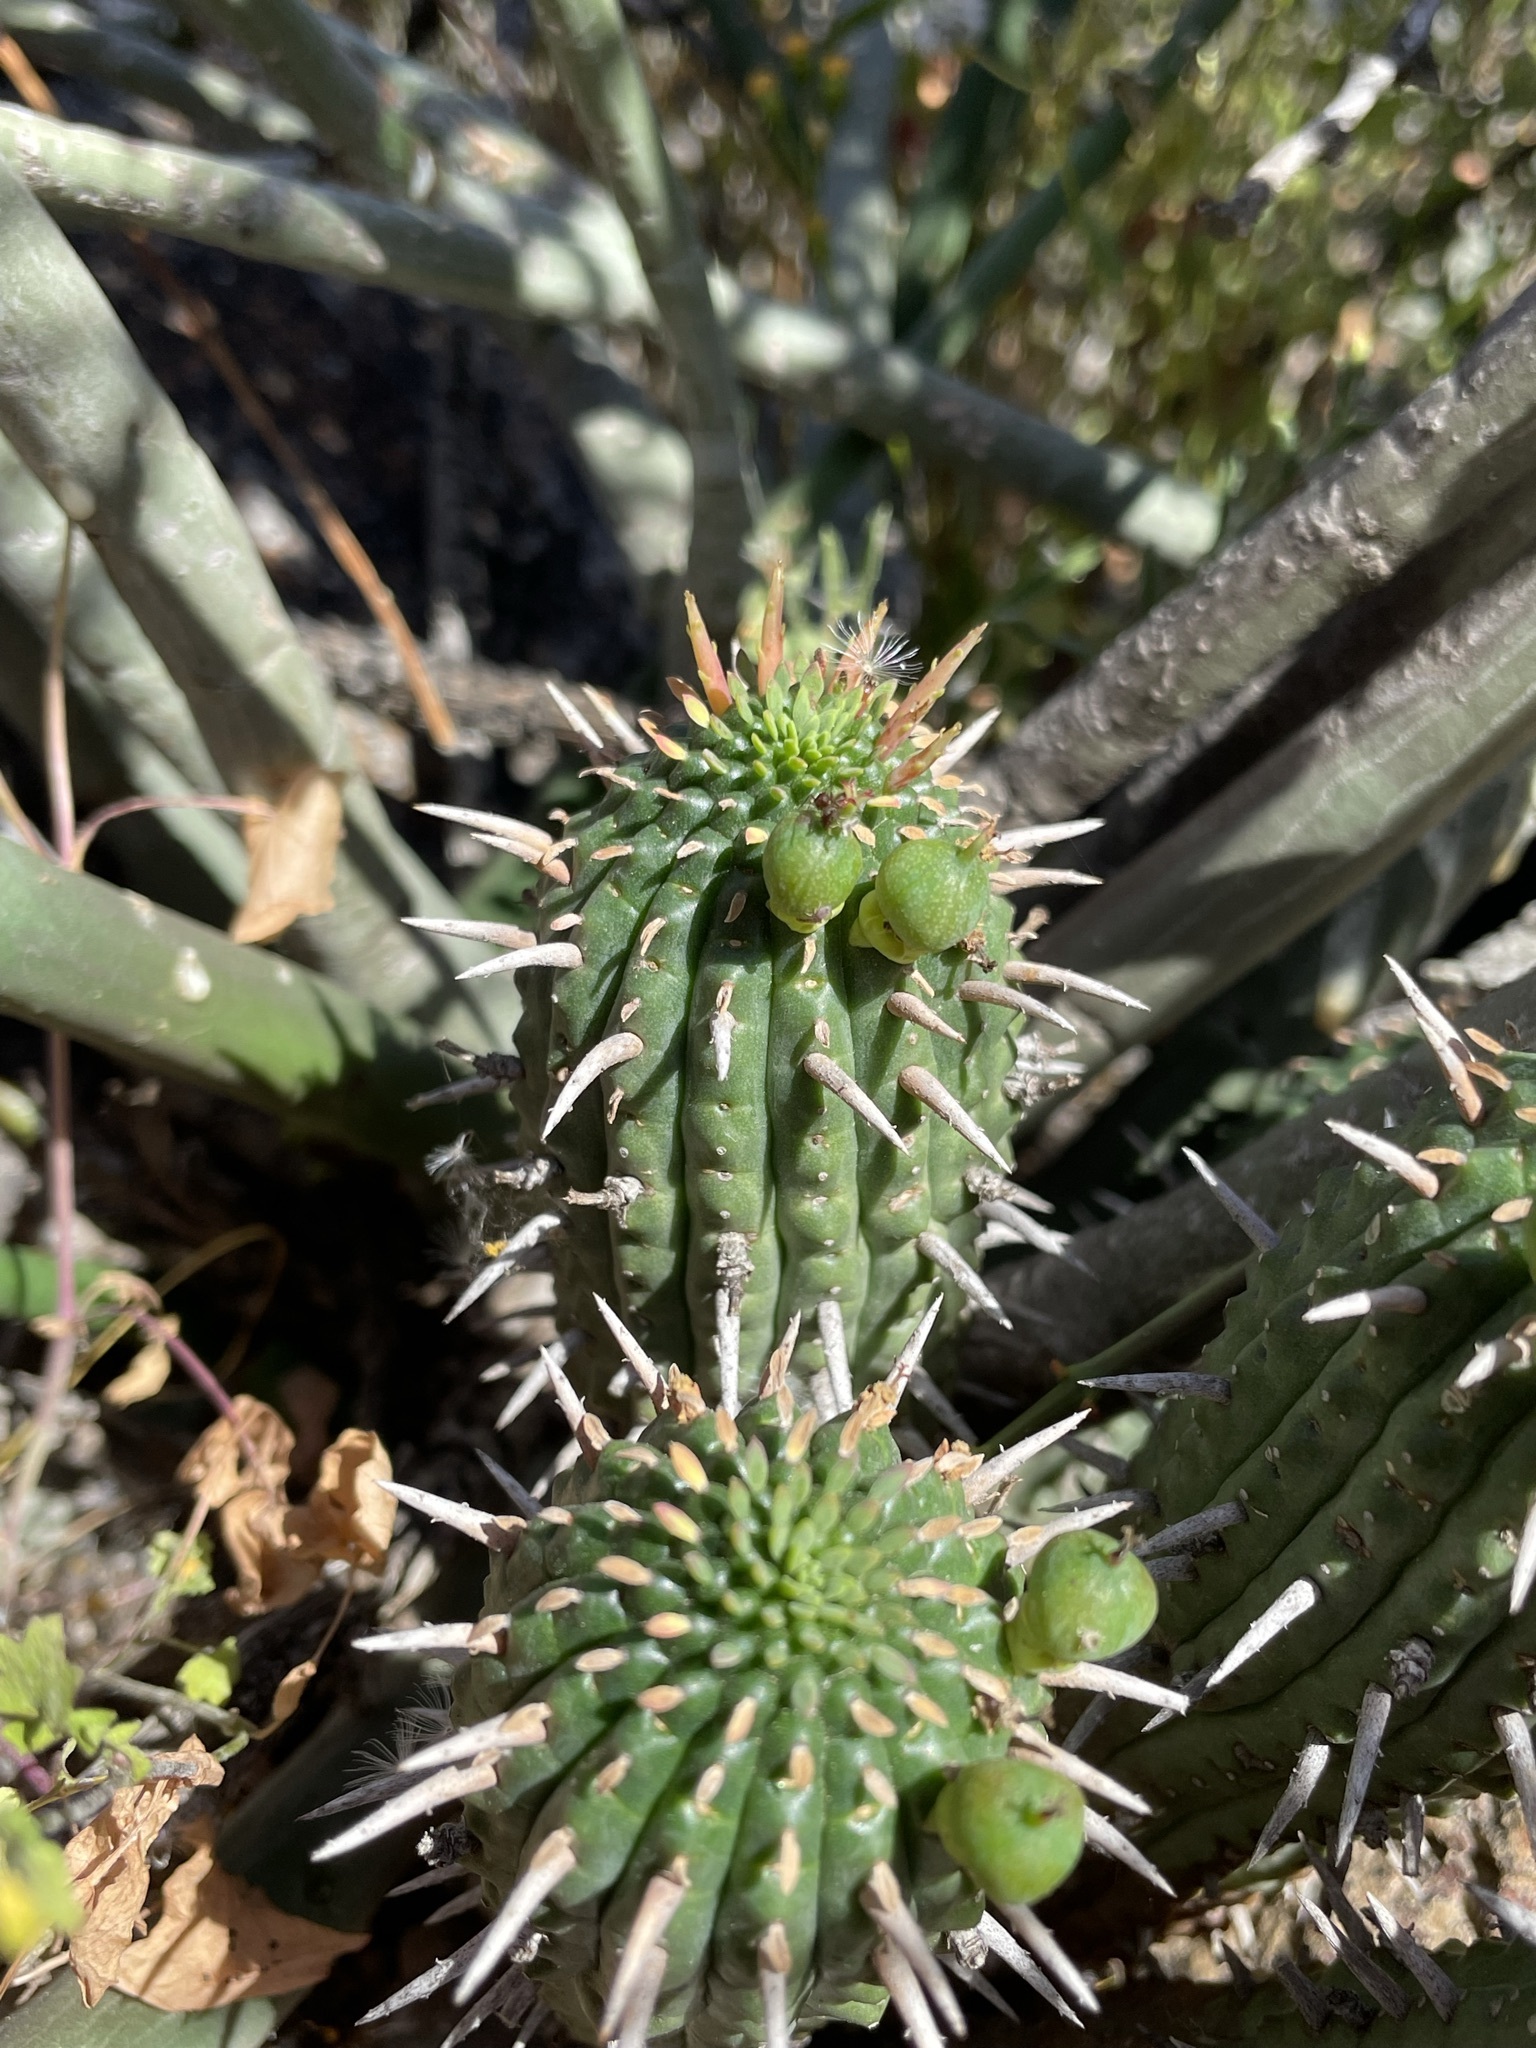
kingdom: Plantae
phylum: Tracheophyta
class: Magnoliopsida
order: Malpighiales
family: Euphorbiaceae
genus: Euphorbia
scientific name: Euphorbia ferox
